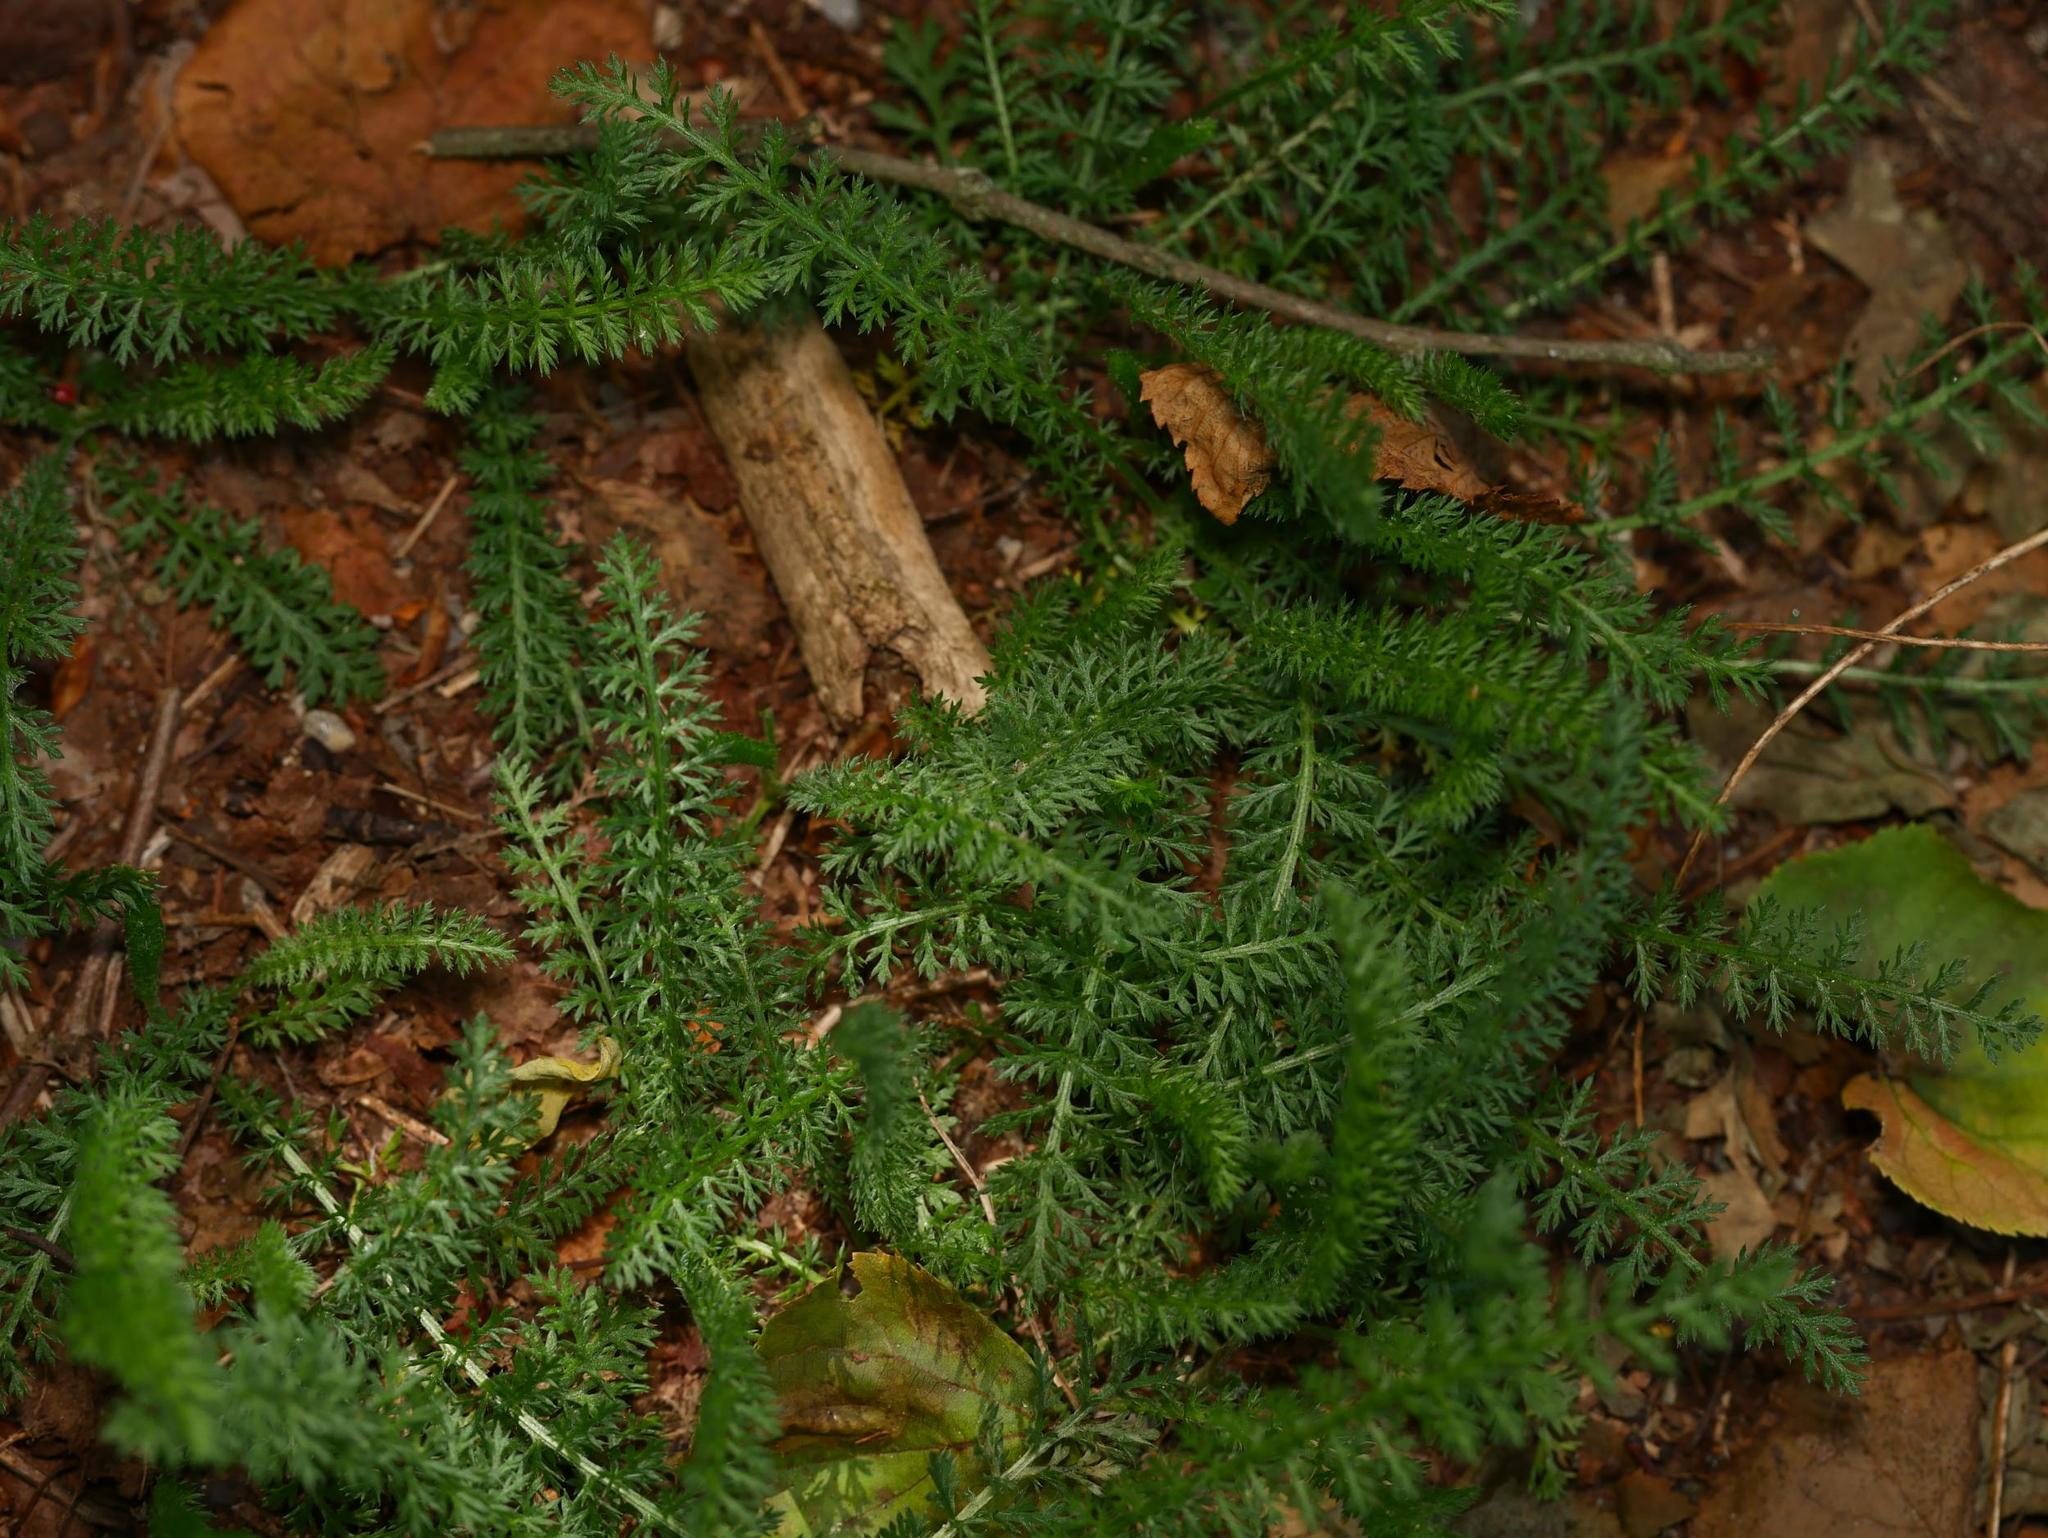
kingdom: Plantae
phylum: Tracheophyta
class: Magnoliopsida
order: Asterales
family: Asteraceae
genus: Achillea
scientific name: Achillea millefolium
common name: Yarrow
